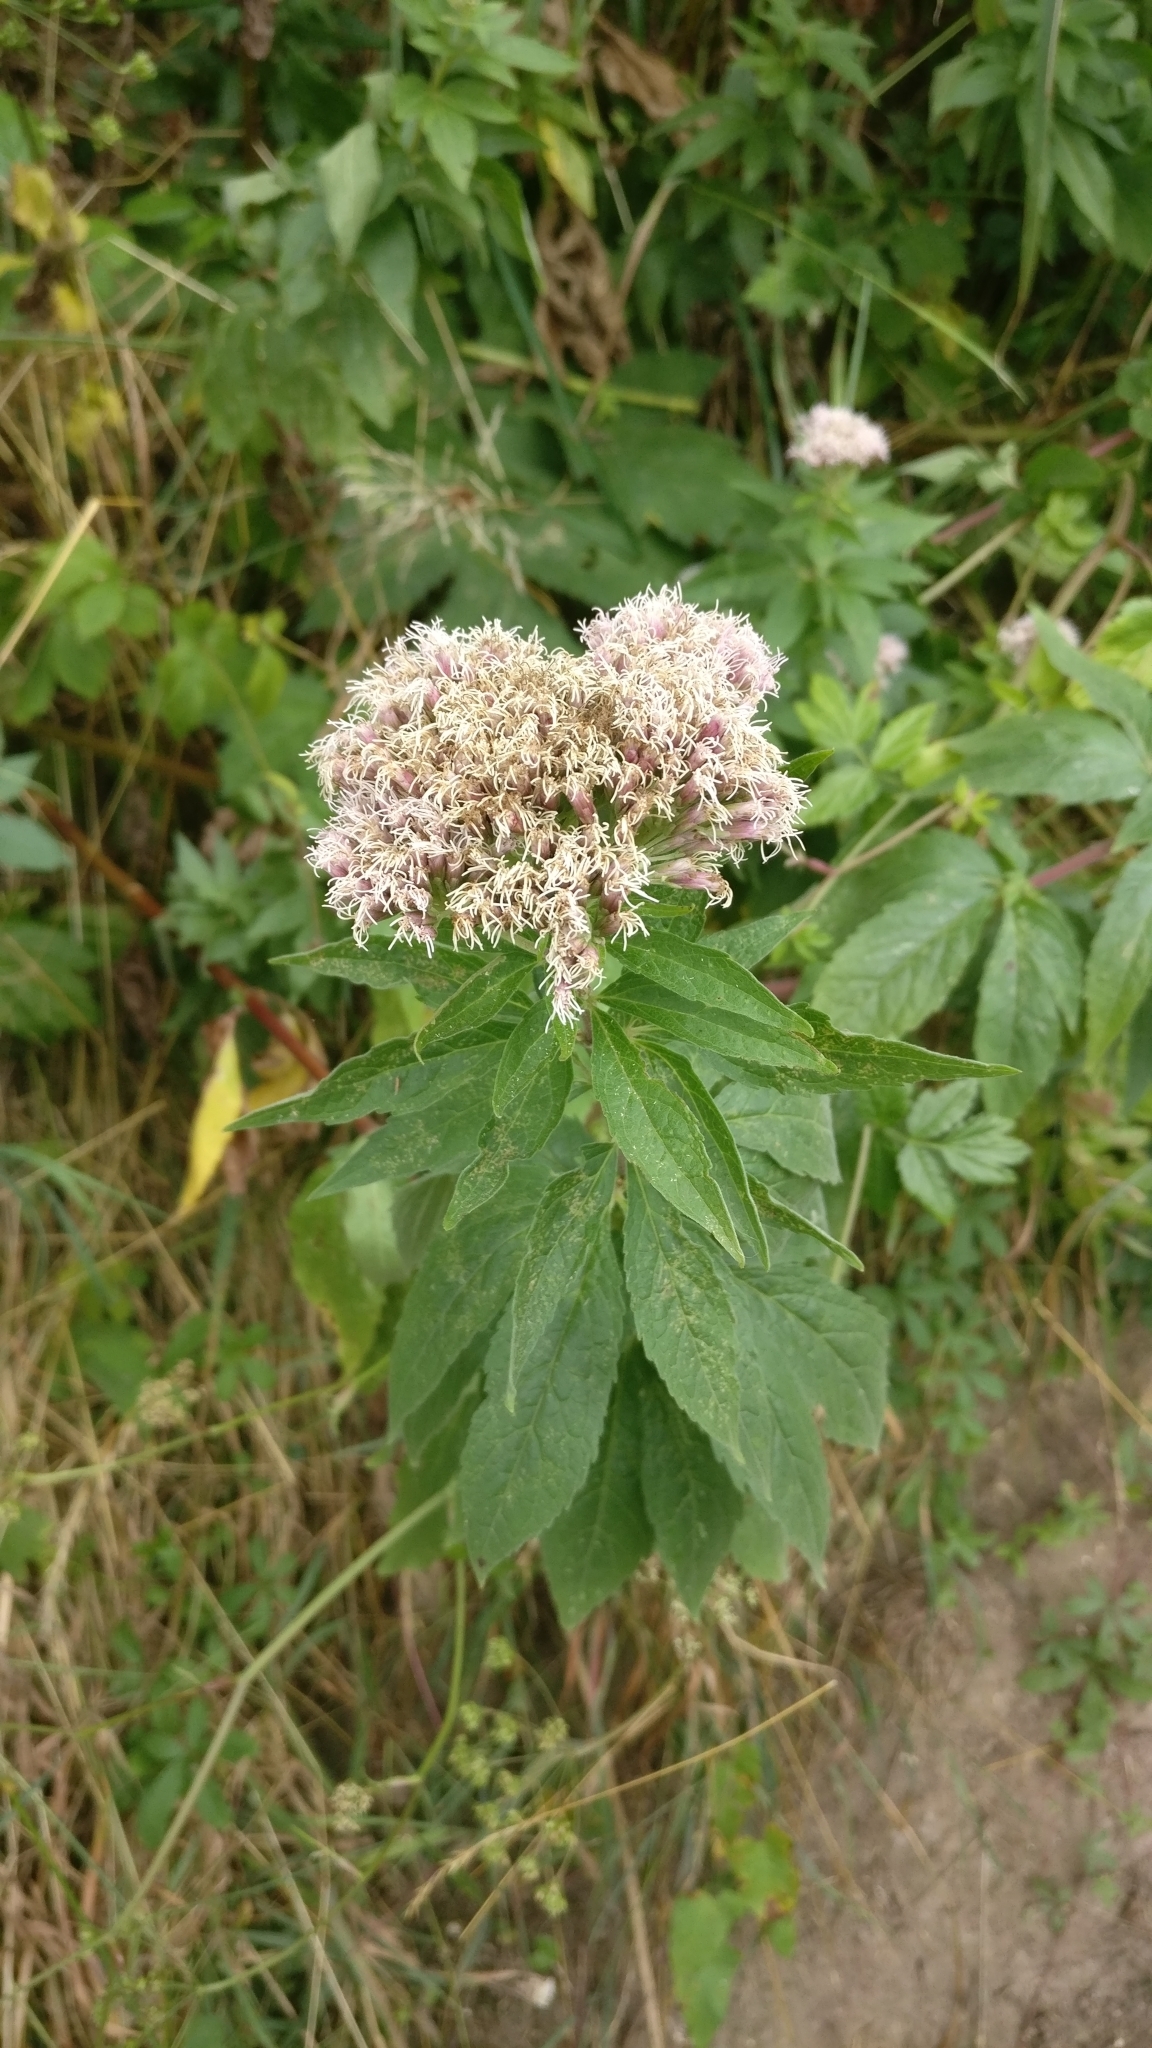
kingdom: Plantae
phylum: Tracheophyta
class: Magnoliopsida
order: Asterales
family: Asteraceae
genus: Eupatorium
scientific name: Eupatorium cannabinum
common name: Hemp-agrimony
